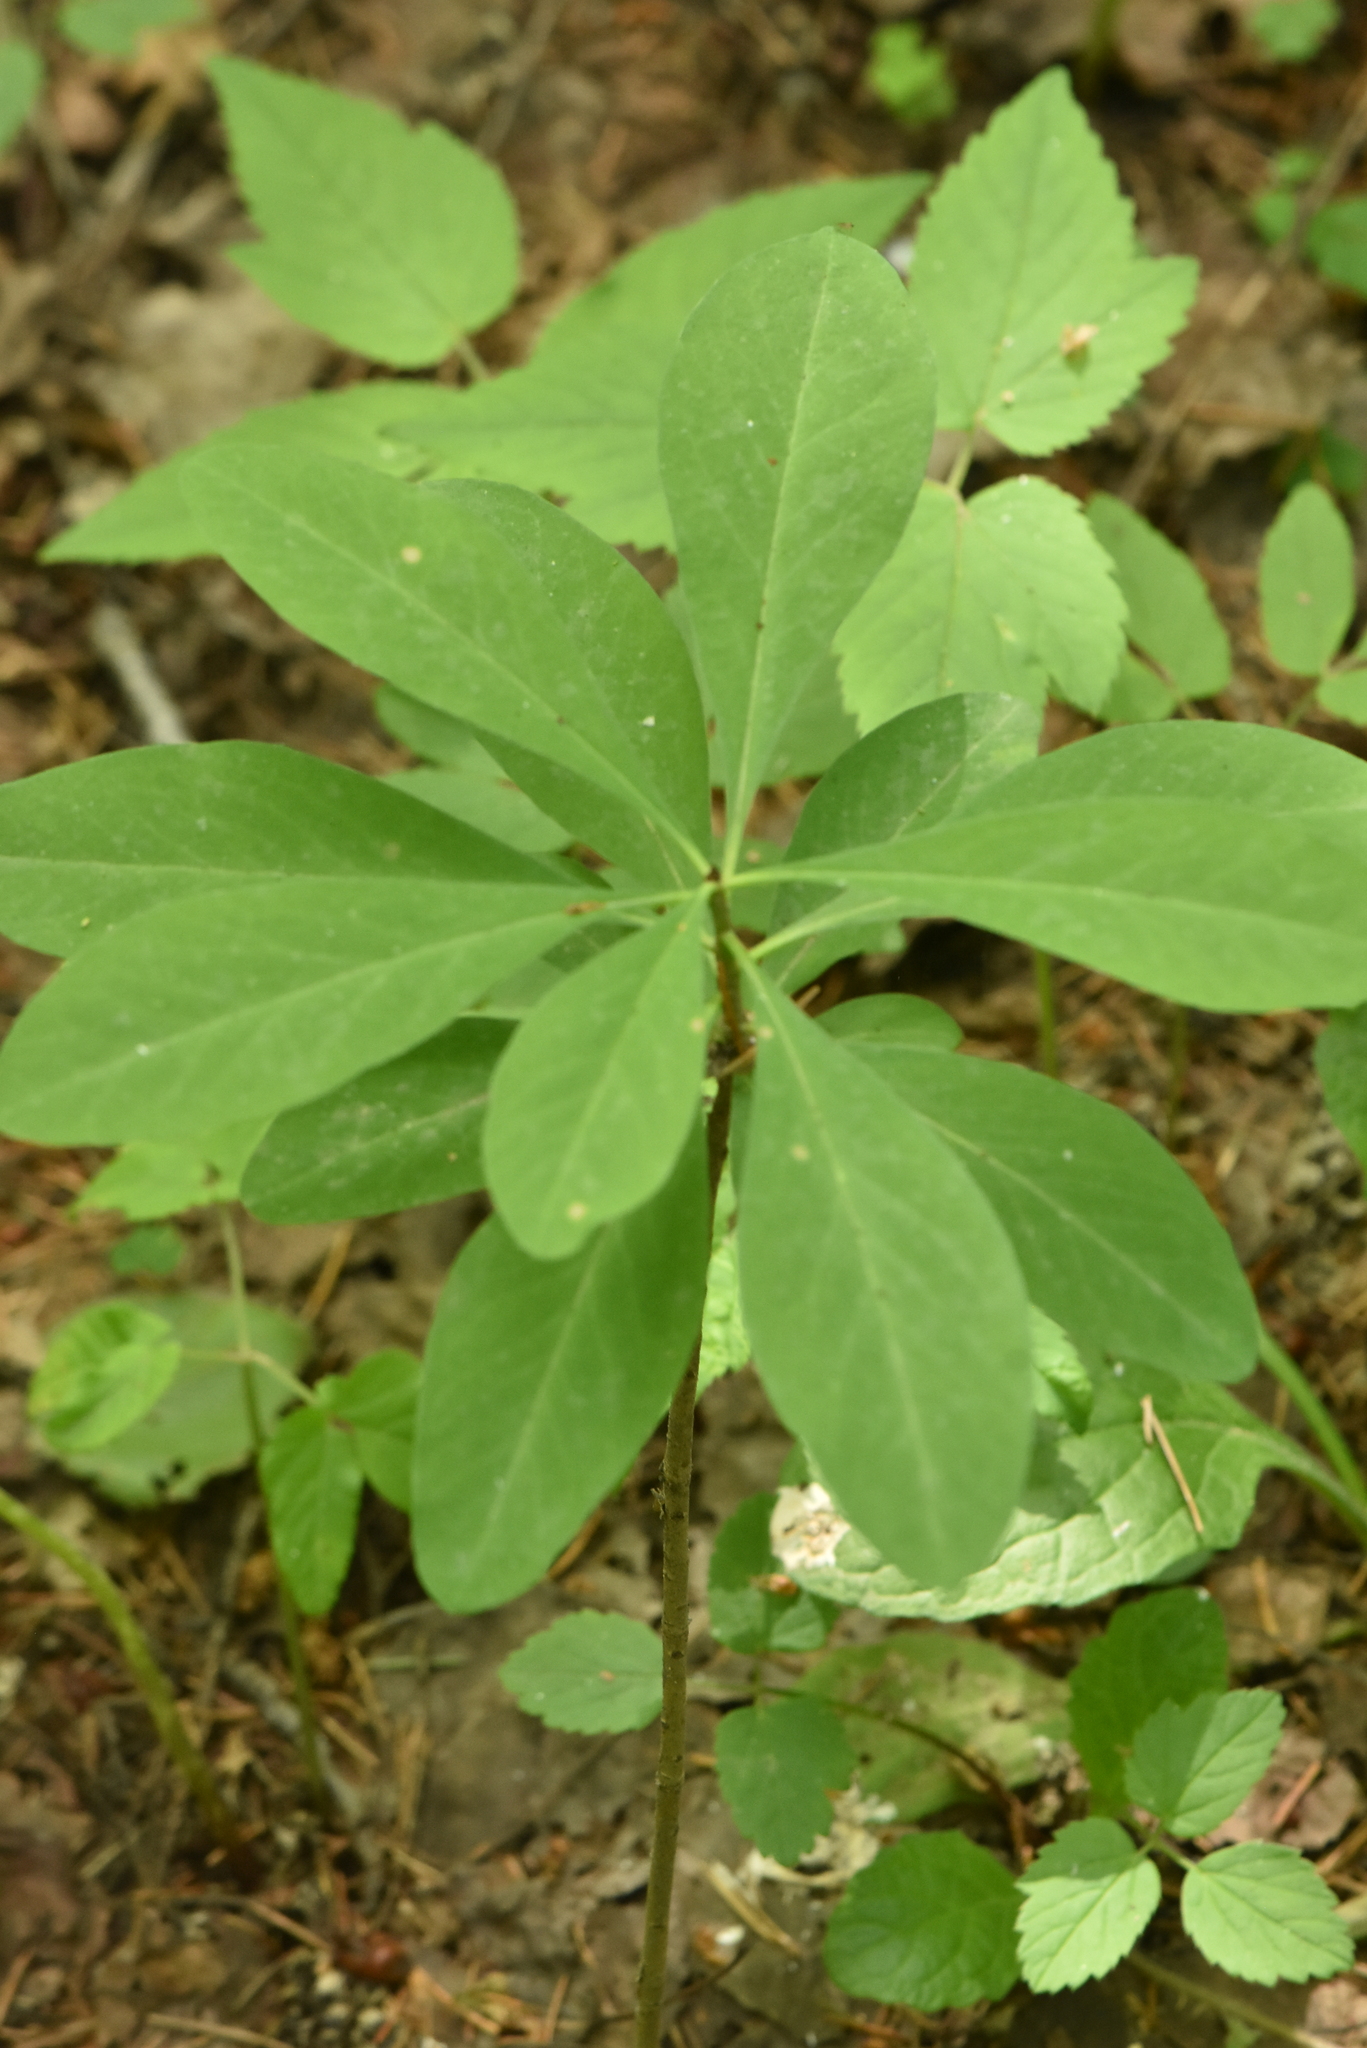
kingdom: Plantae
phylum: Tracheophyta
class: Magnoliopsida
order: Malvales
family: Thymelaeaceae
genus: Daphne
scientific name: Daphne mezereum
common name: Mezereon
